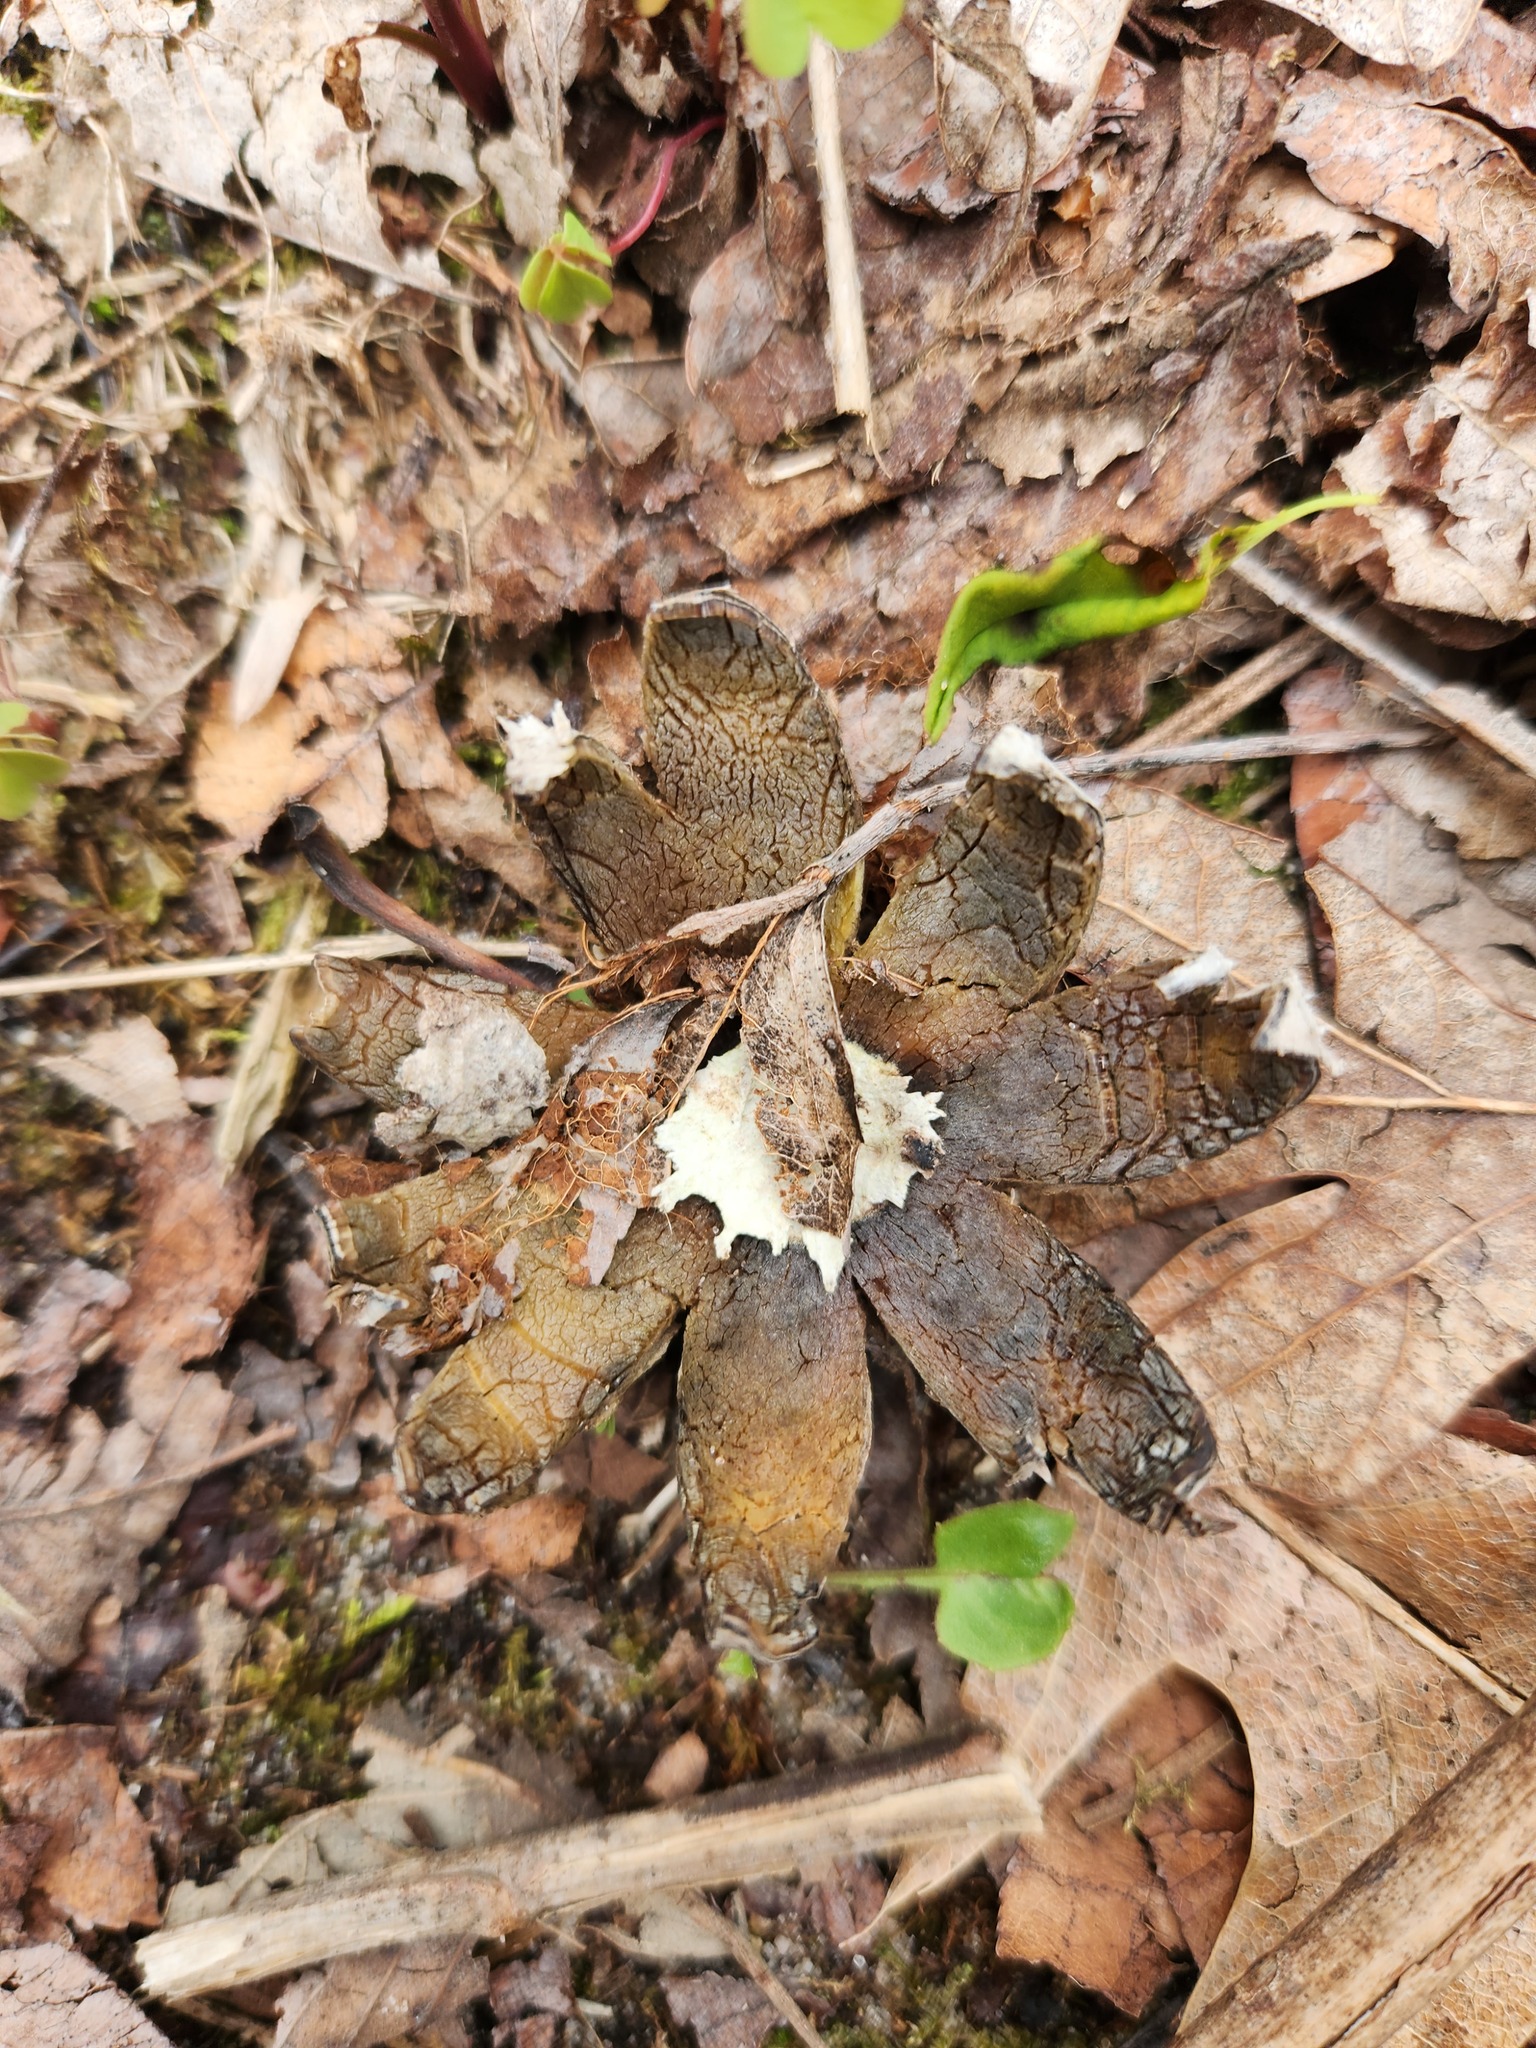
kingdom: Fungi
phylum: Basidiomycota
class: Agaricomycetes
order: Boletales
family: Diplocystidiaceae
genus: Astraeus
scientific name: Astraeus hygrometricus
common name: Barometer earthstar
